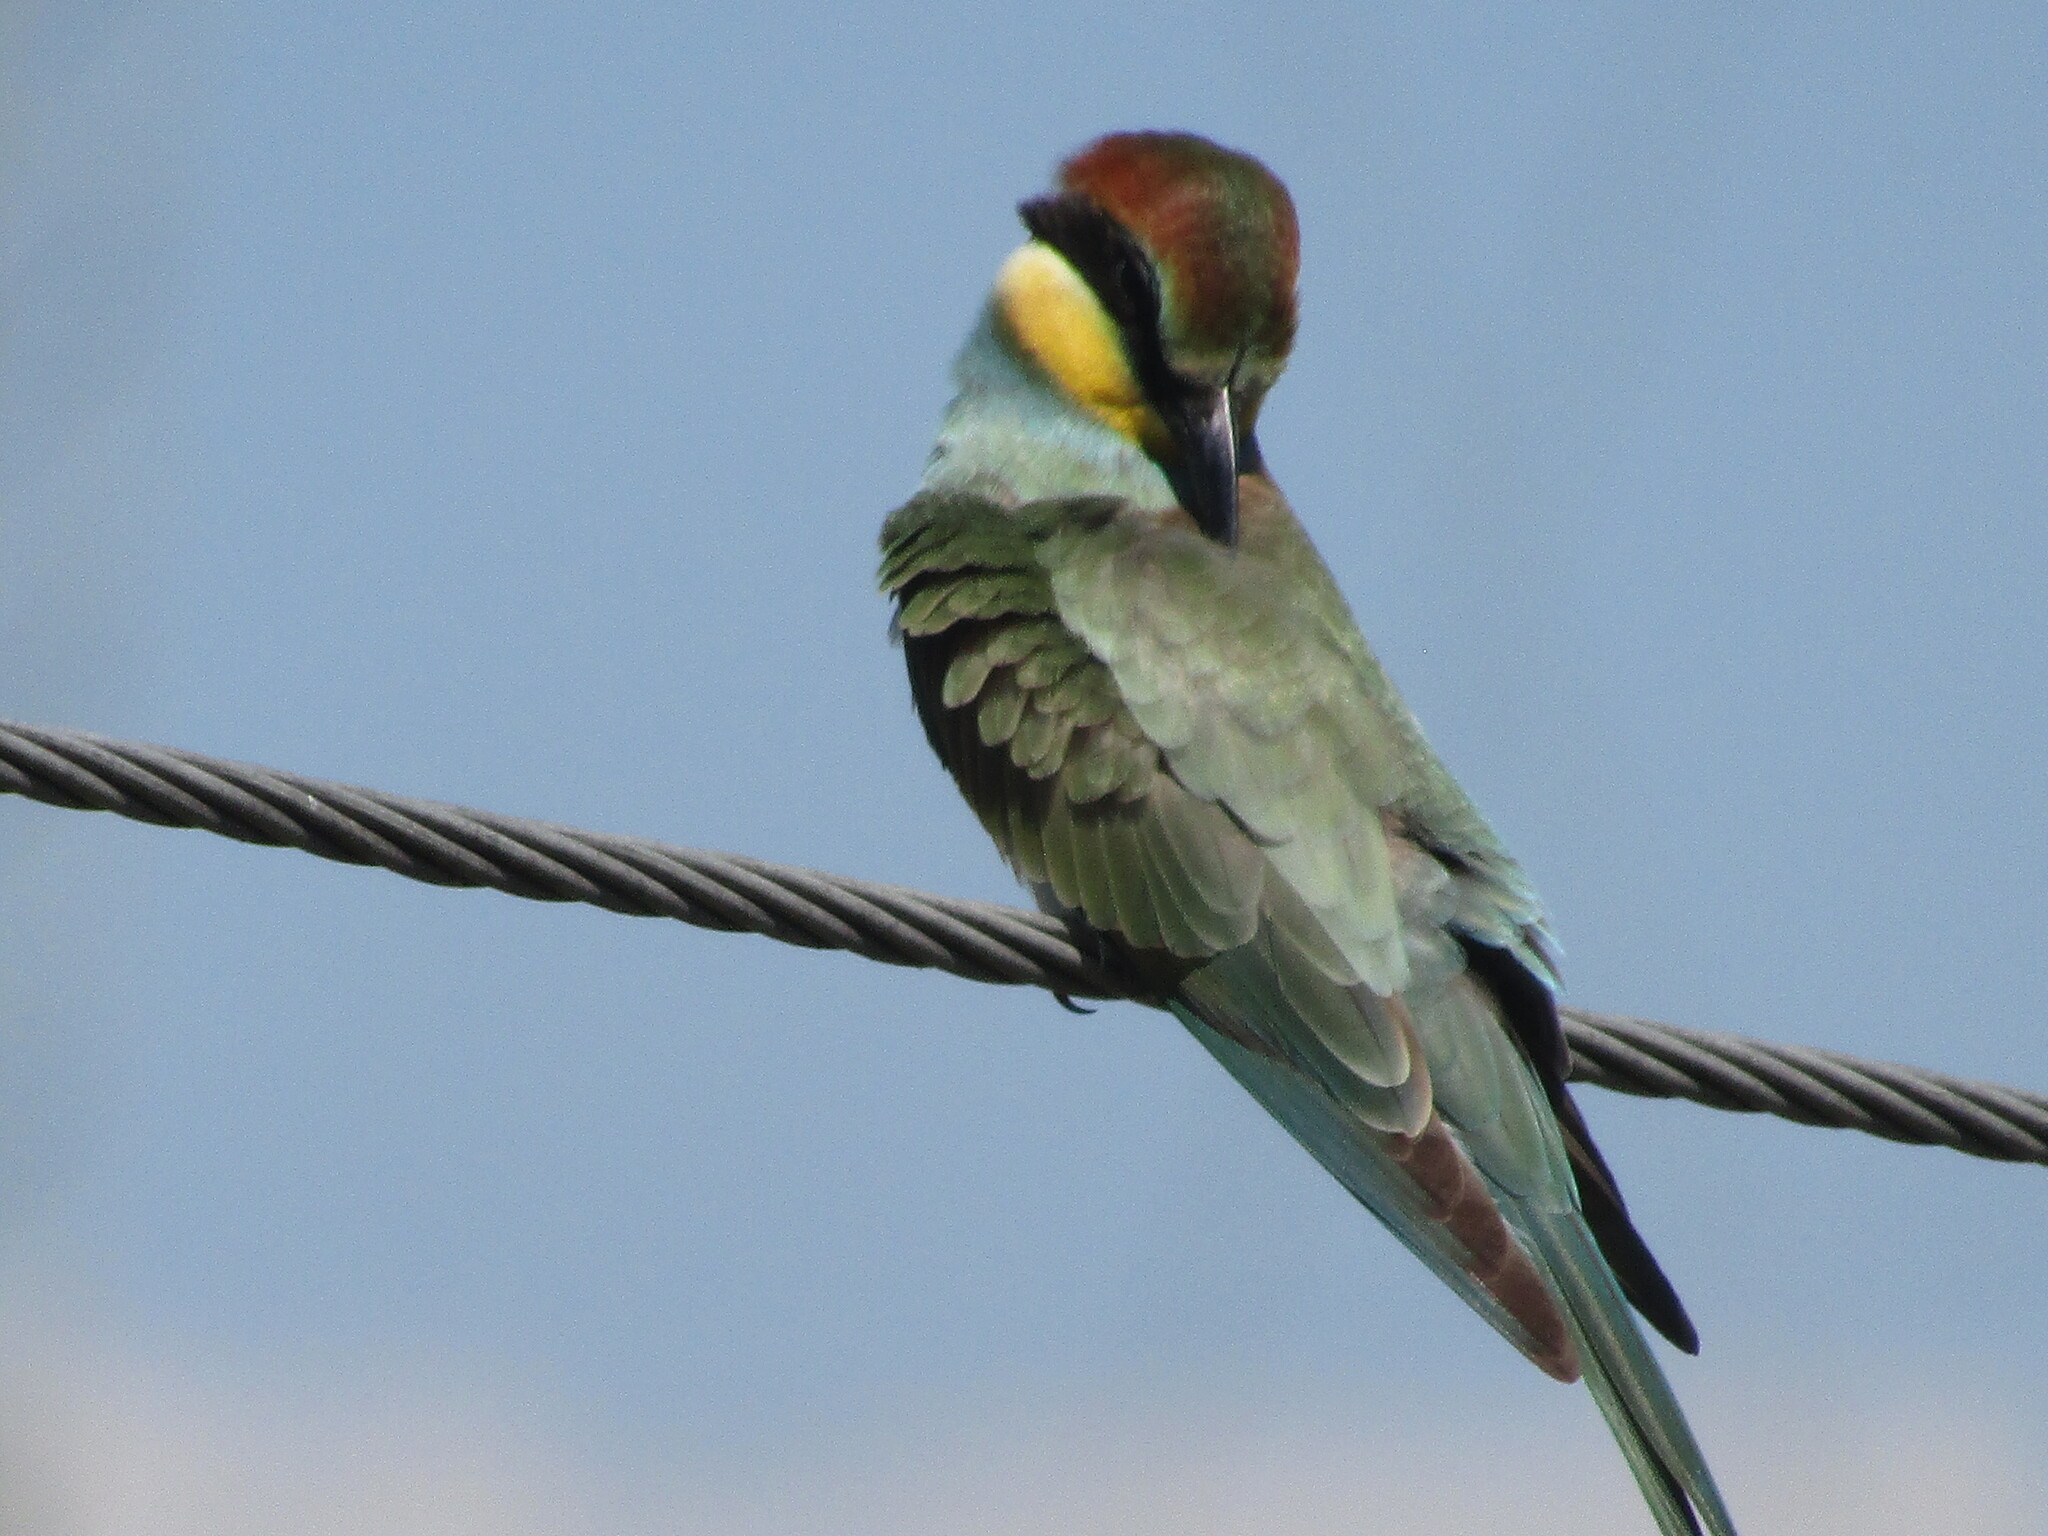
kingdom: Animalia
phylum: Chordata
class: Aves
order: Coraciiformes
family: Meropidae
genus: Merops
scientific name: Merops apiaster
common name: European bee-eater
